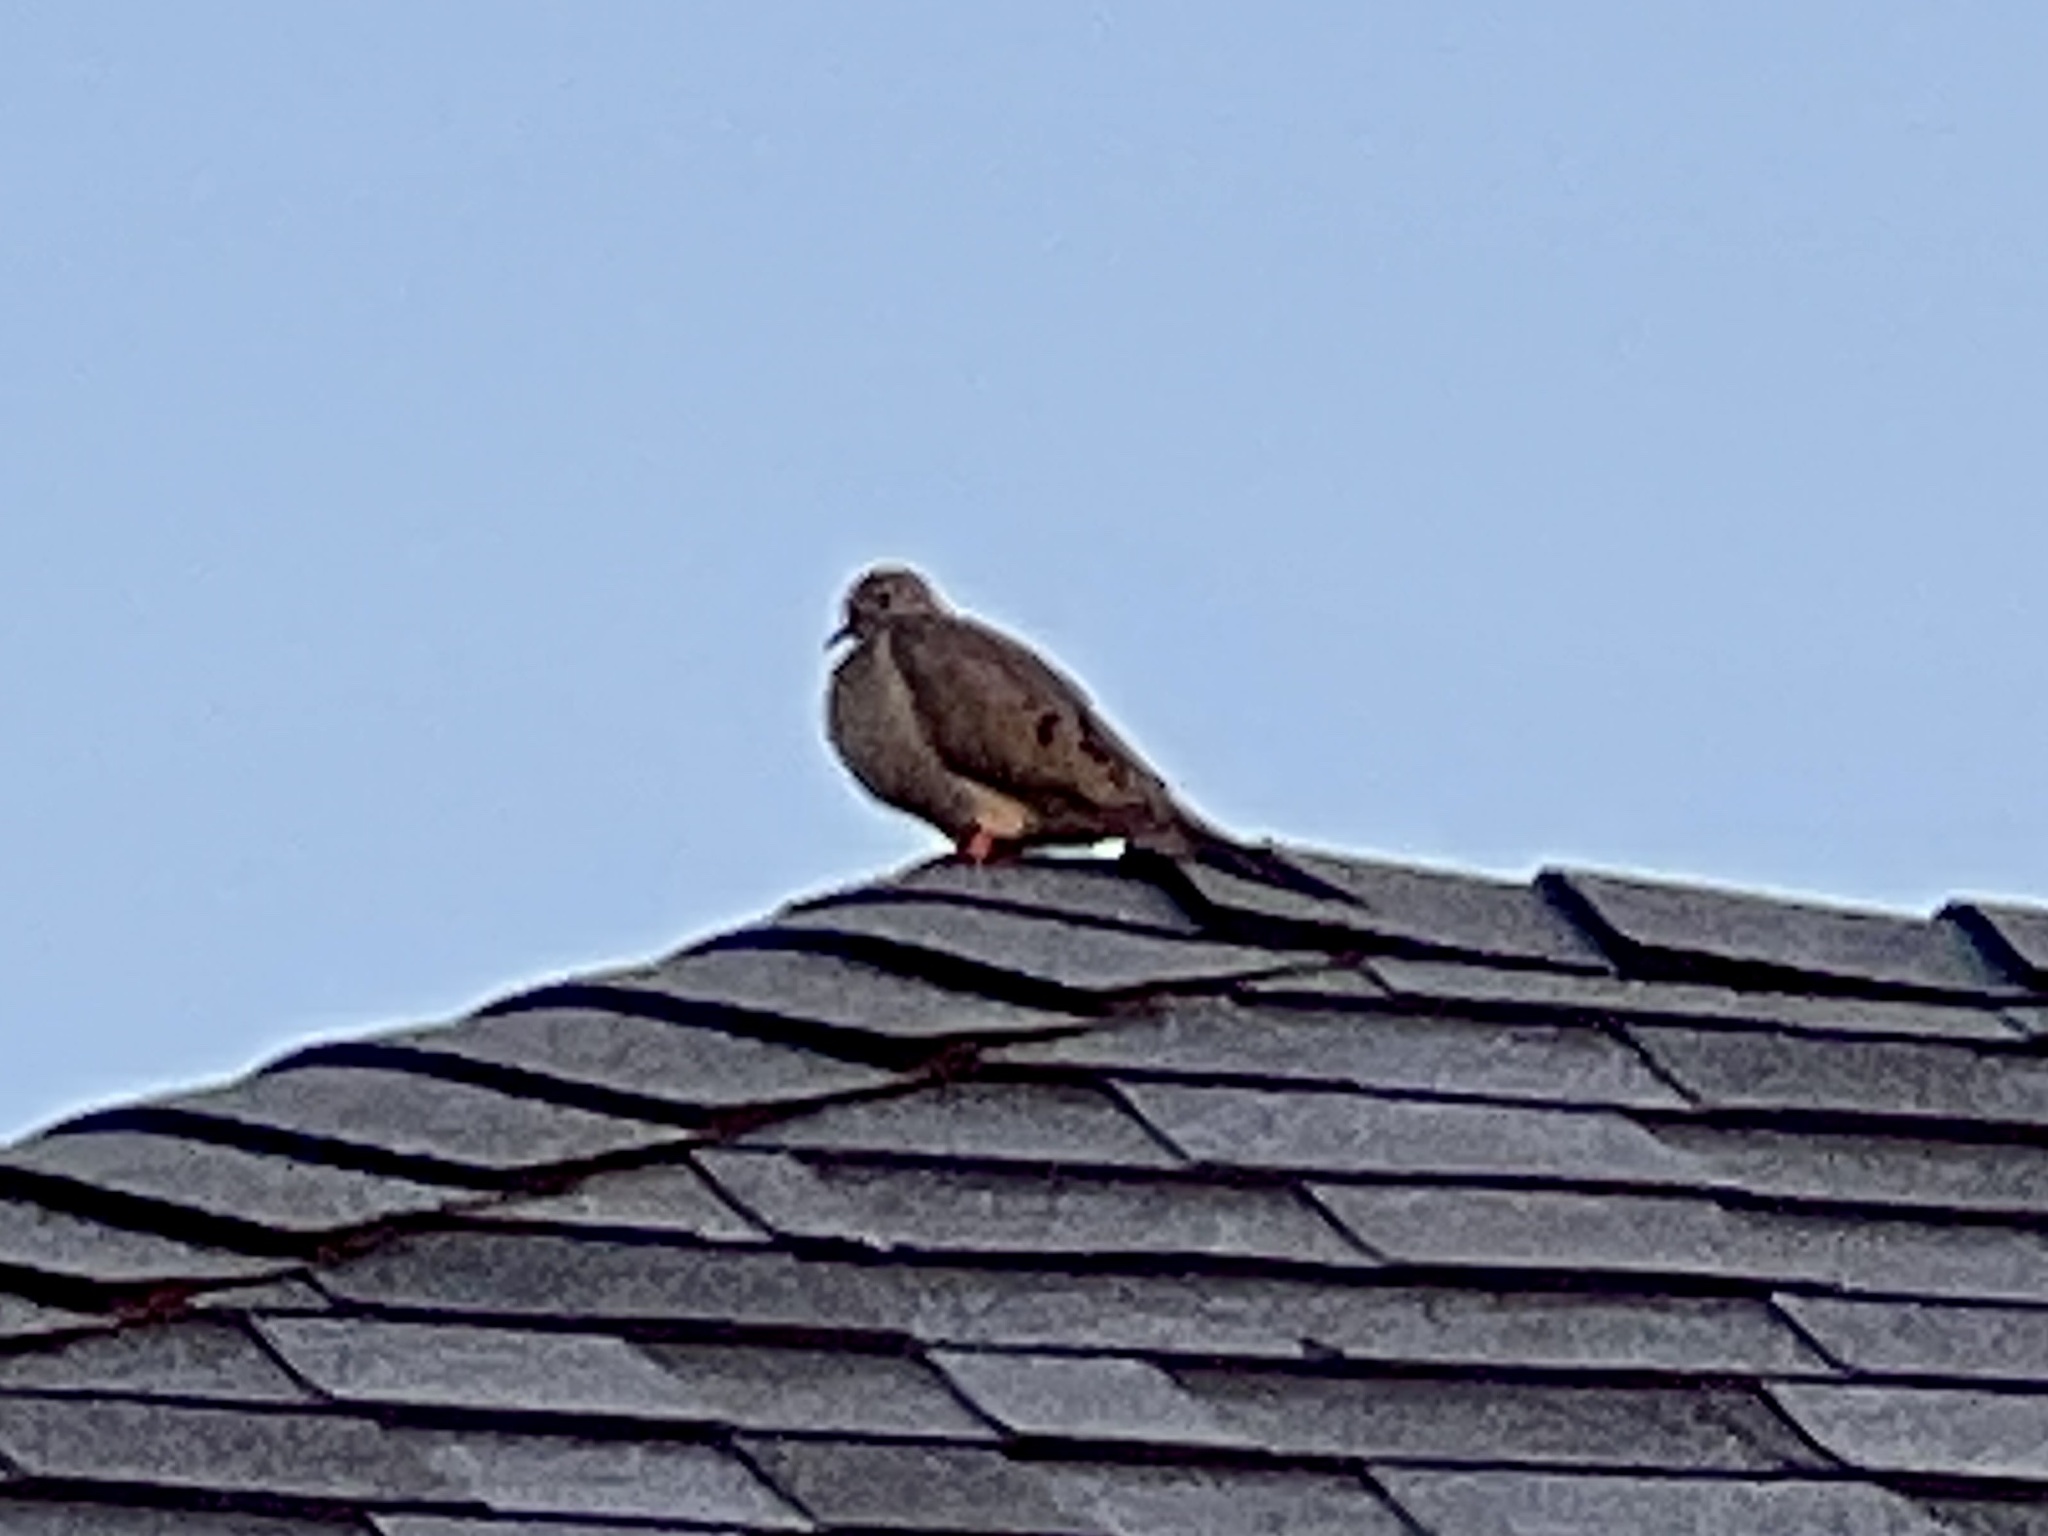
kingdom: Animalia
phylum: Chordata
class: Aves
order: Columbiformes
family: Columbidae
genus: Zenaida
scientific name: Zenaida macroura
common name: Mourning dove
